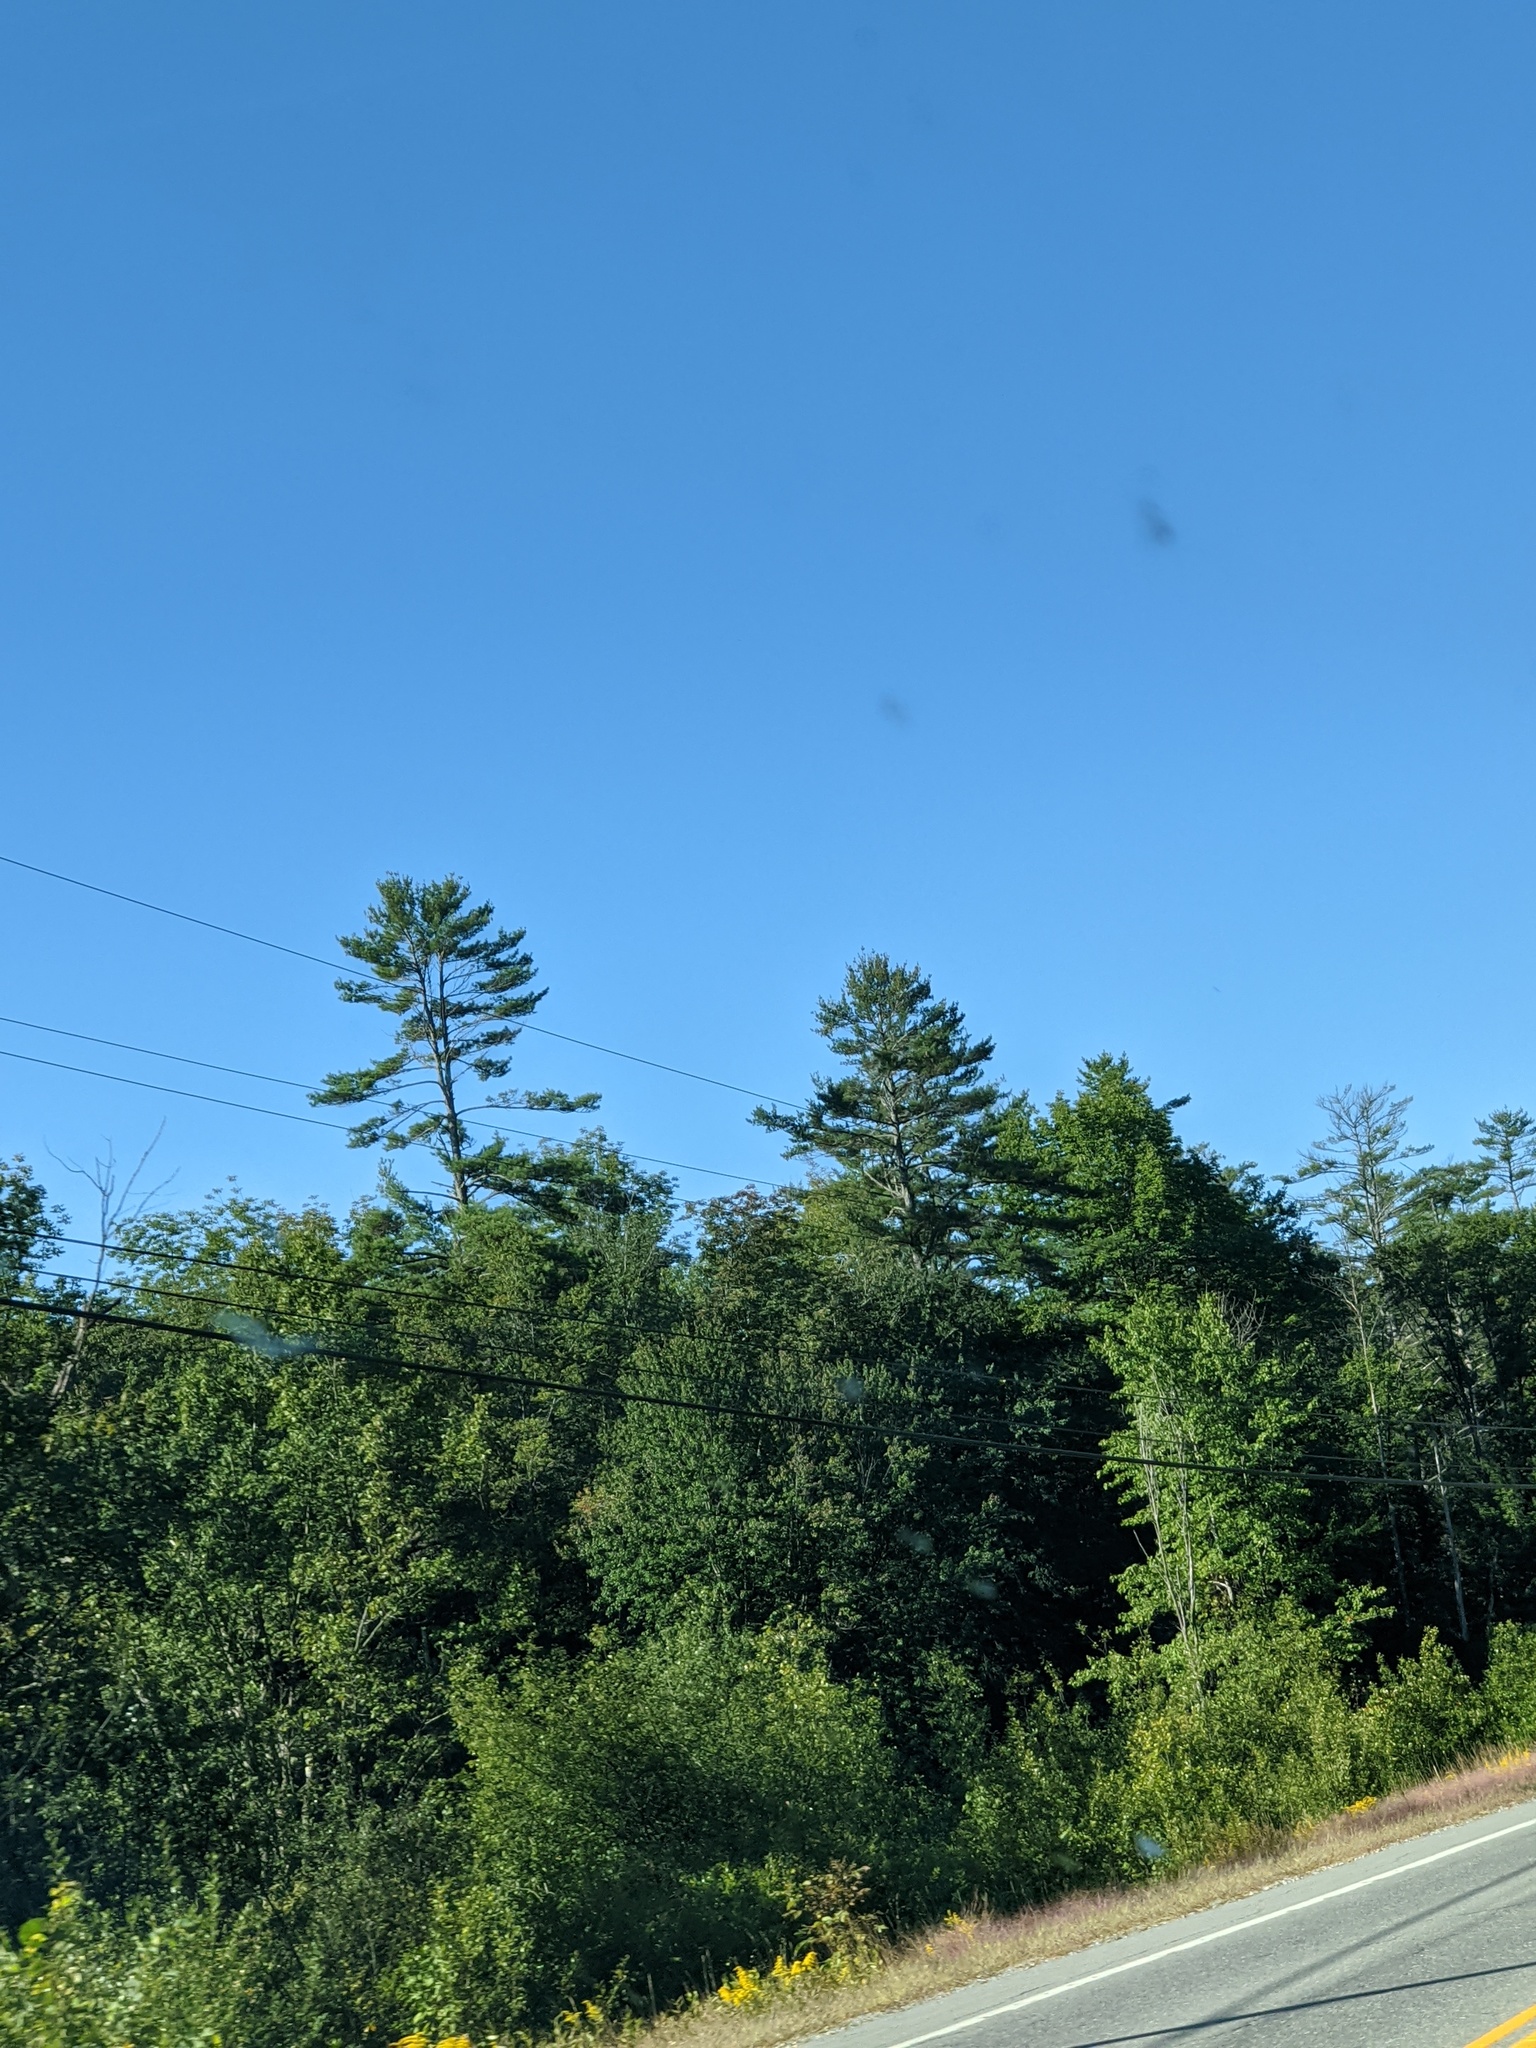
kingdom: Plantae
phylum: Tracheophyta
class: Pinopsida
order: Pinales
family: Pinaceae
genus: Pinus
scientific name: Pinus strobus
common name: Weymouth pine
